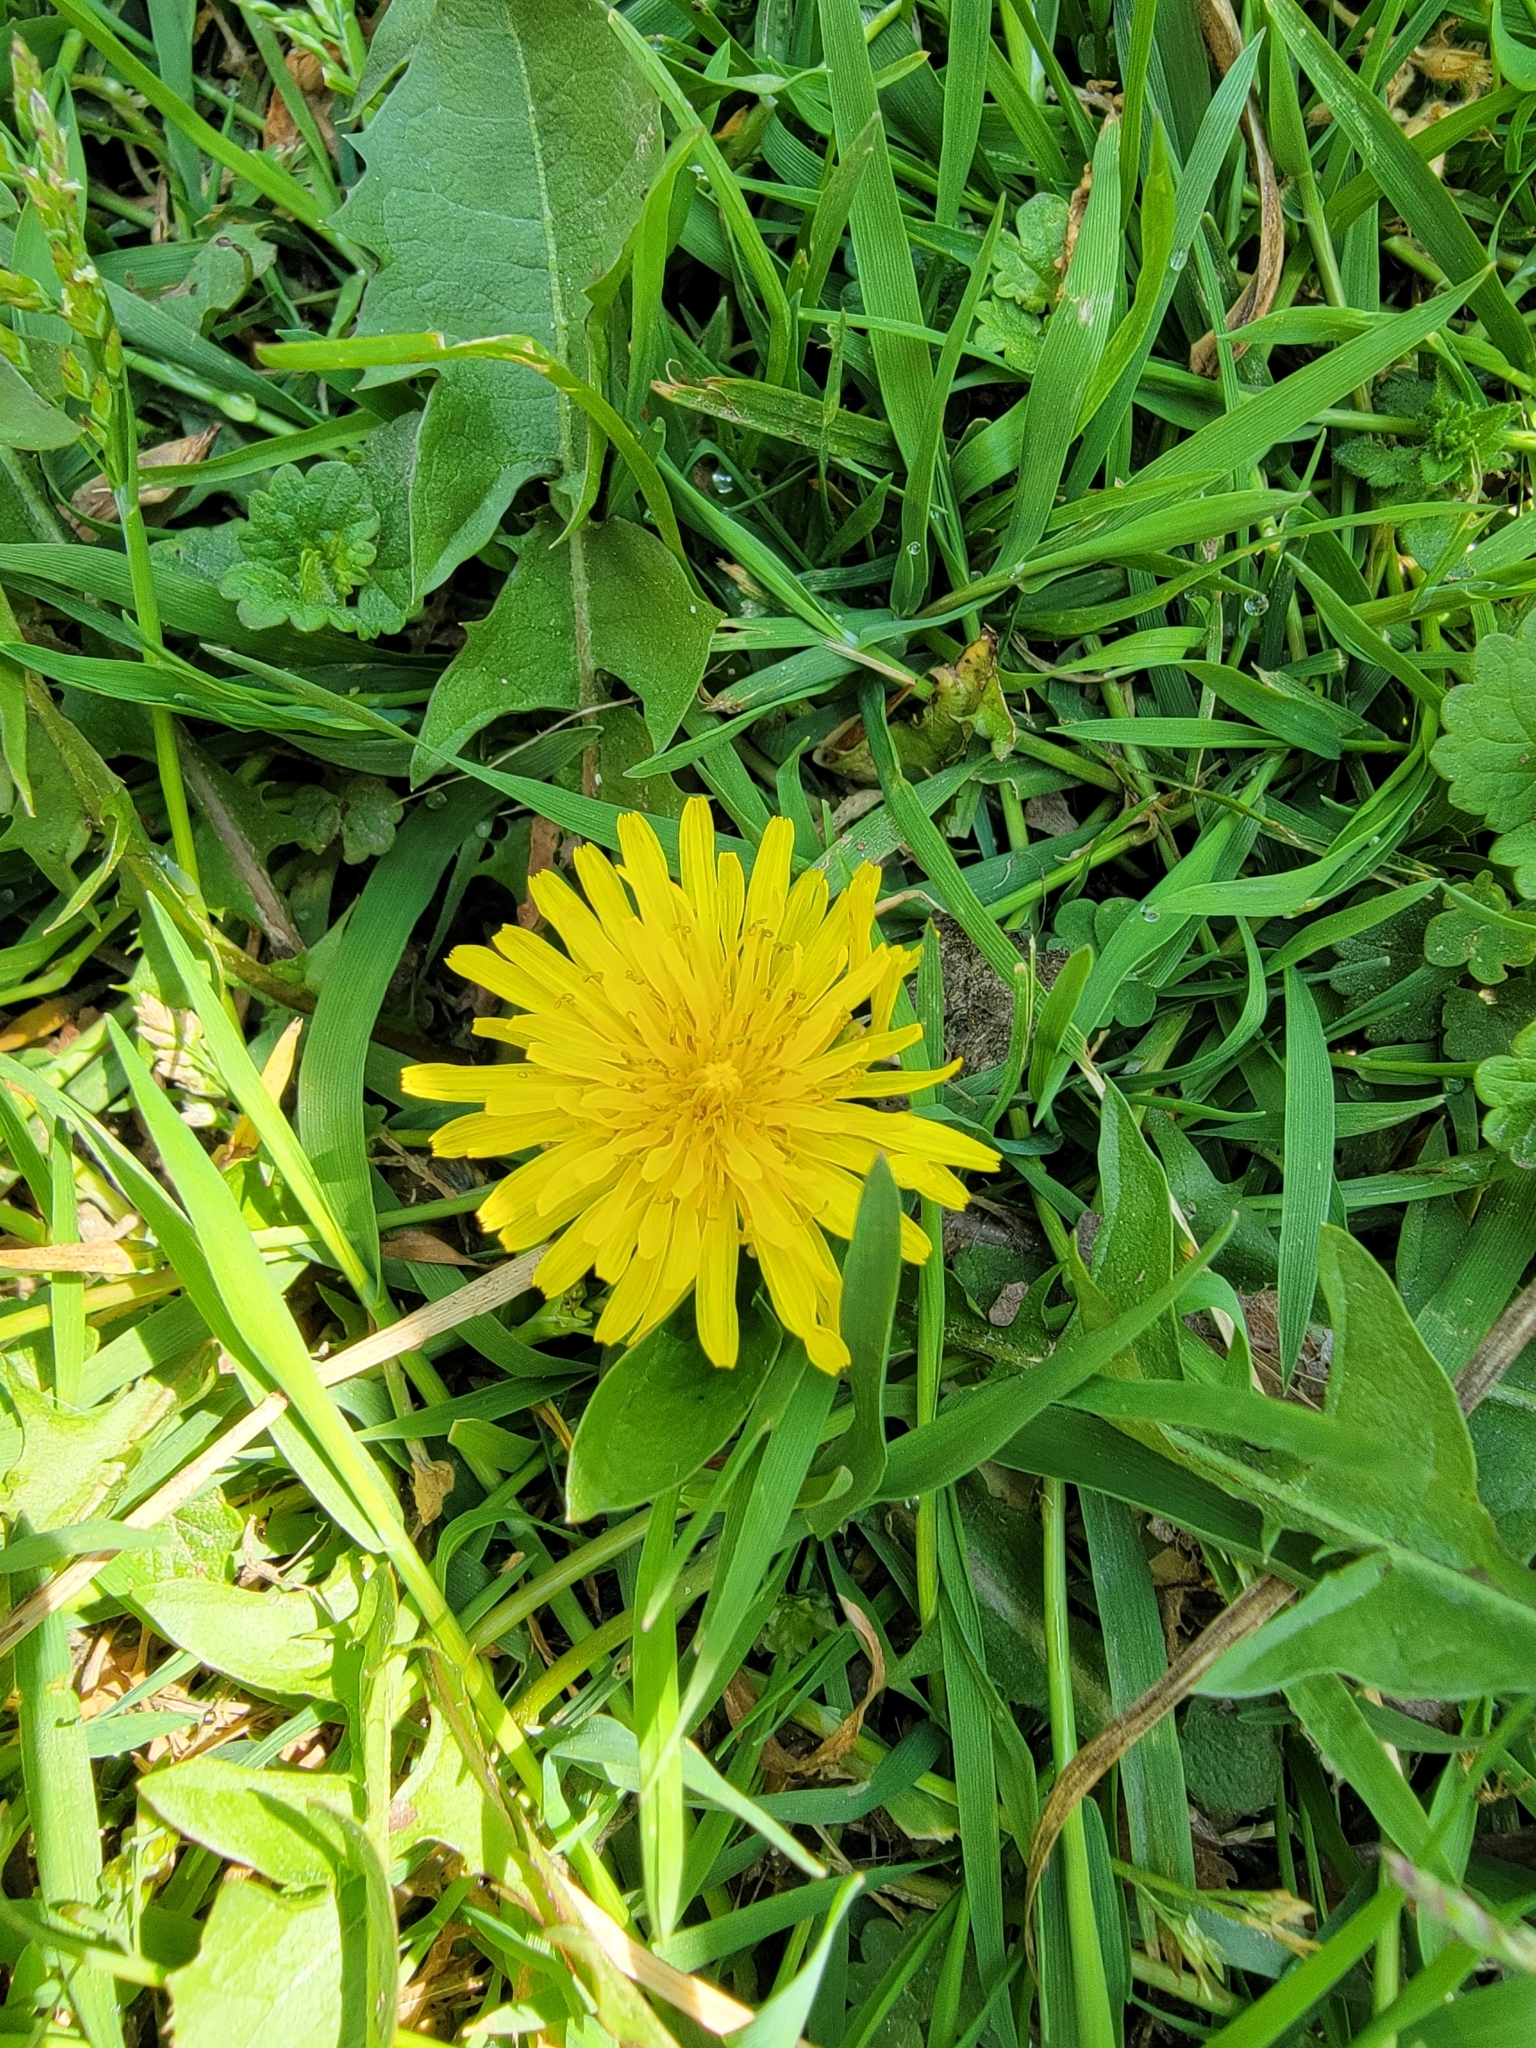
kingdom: Plantae
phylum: Tracheophyta
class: Magnoliopsida
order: Asterales
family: Asteraceae
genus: Taraxacum
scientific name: Taraxacum officinale
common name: Common dandelion
